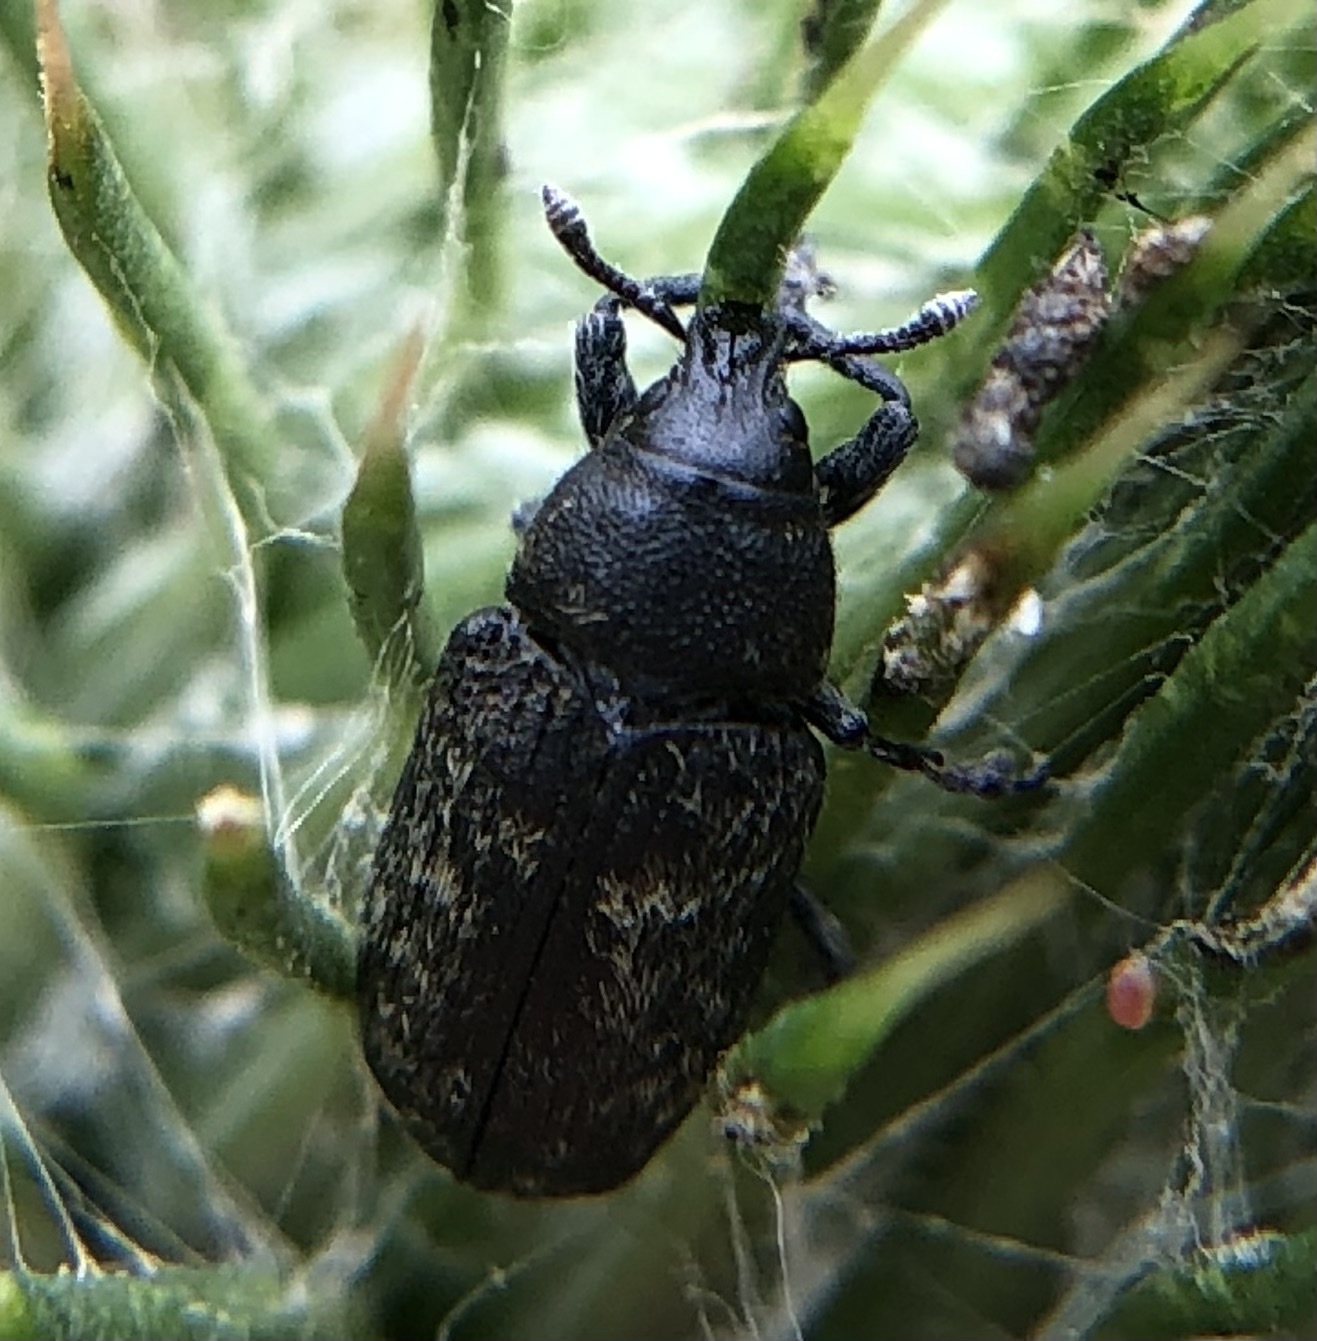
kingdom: Animalia
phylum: Arthropoda
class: Insecta
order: Coleoptera
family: Curculionidae
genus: Rhinocyllus
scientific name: Rhinocyllus conicus
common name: Weevil
